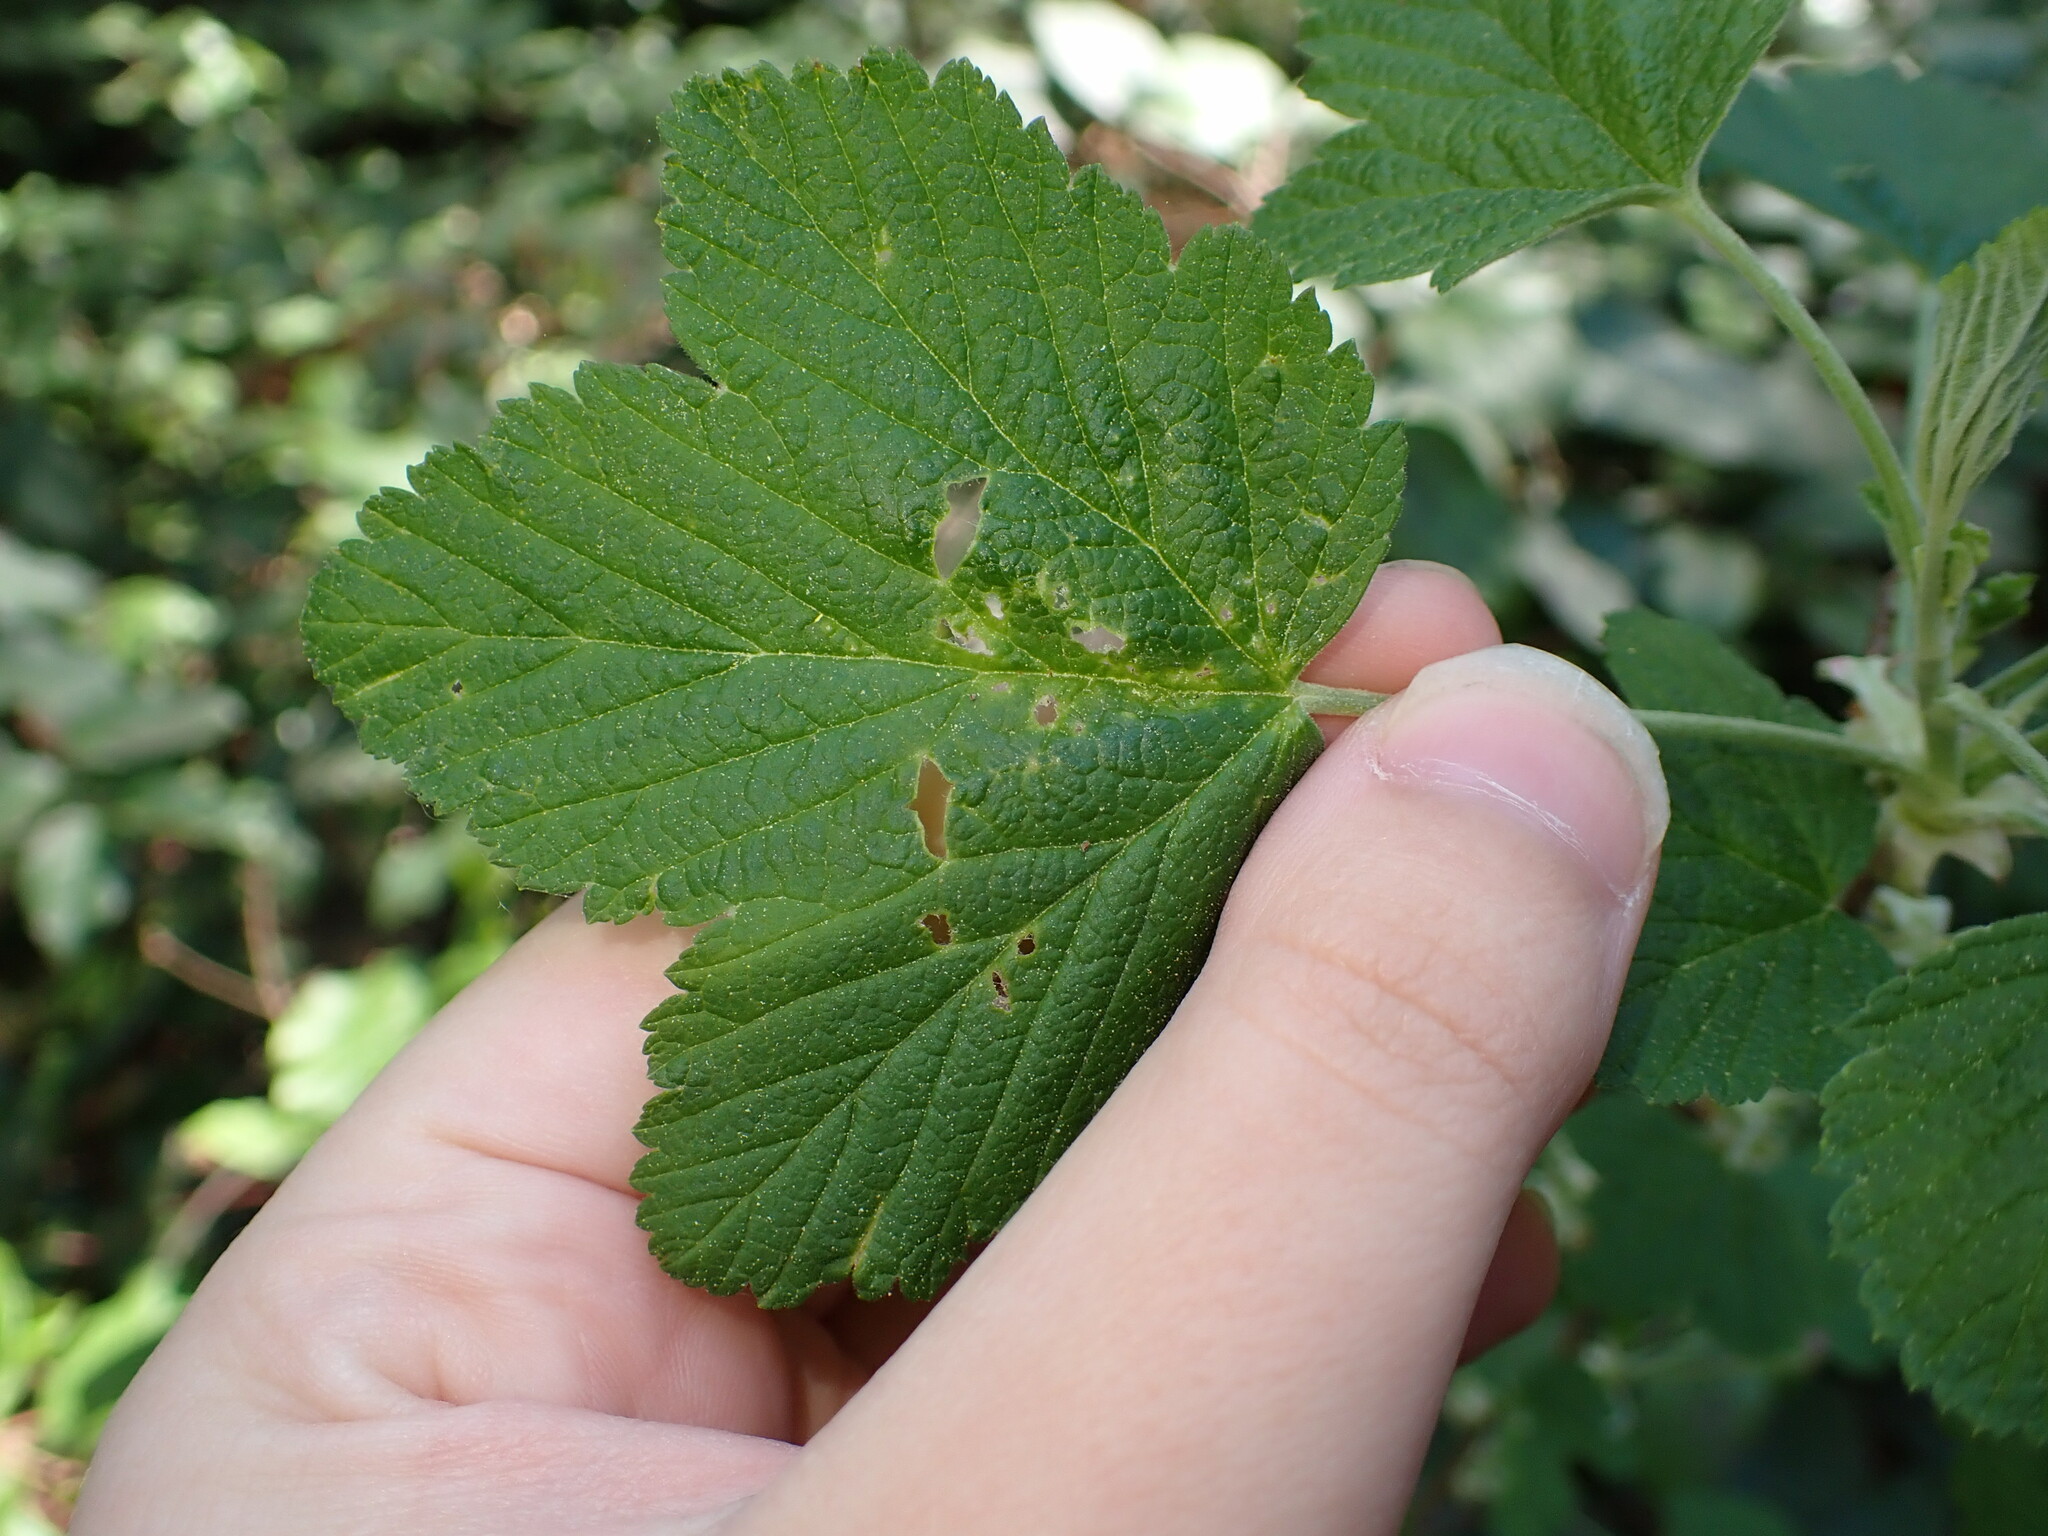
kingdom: Plantae
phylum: Tracheophyta
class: Magnoliopsida
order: Saxifragales
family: Grossulariaceae
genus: Ribes
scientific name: Ribes sanguineum
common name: Flowering currant
